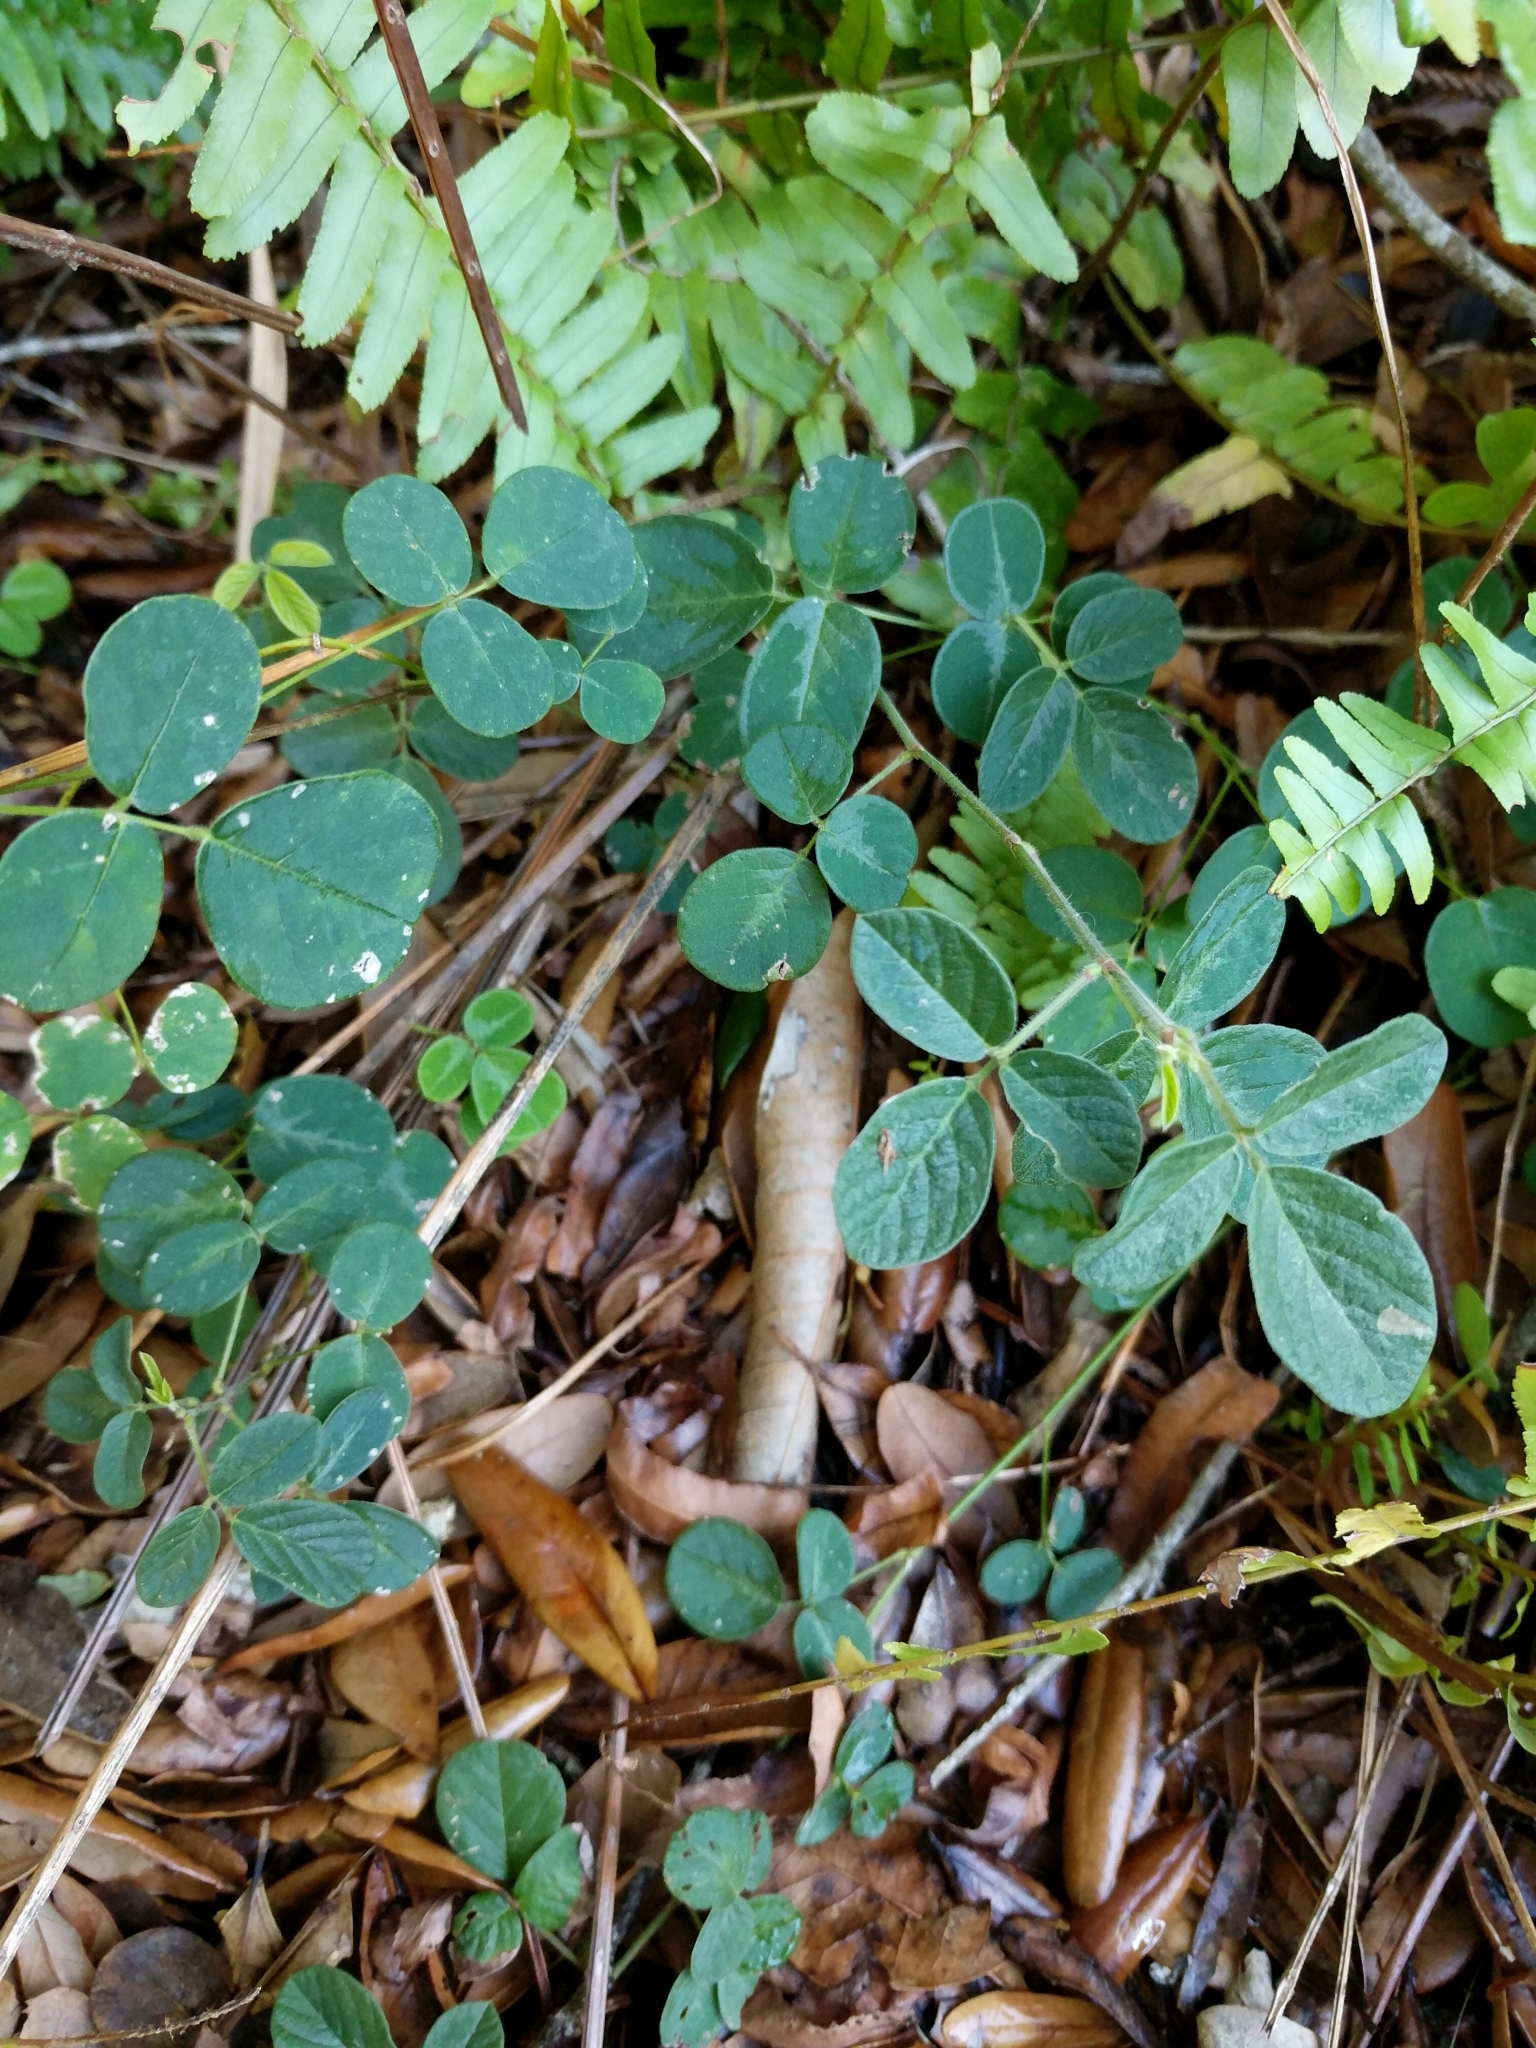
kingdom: Plantae
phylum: Tracheophyta
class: Magnoliopsida
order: Fabales
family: Fabaceae
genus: Desmodium
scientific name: Desmodium incanum
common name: Tickclover
